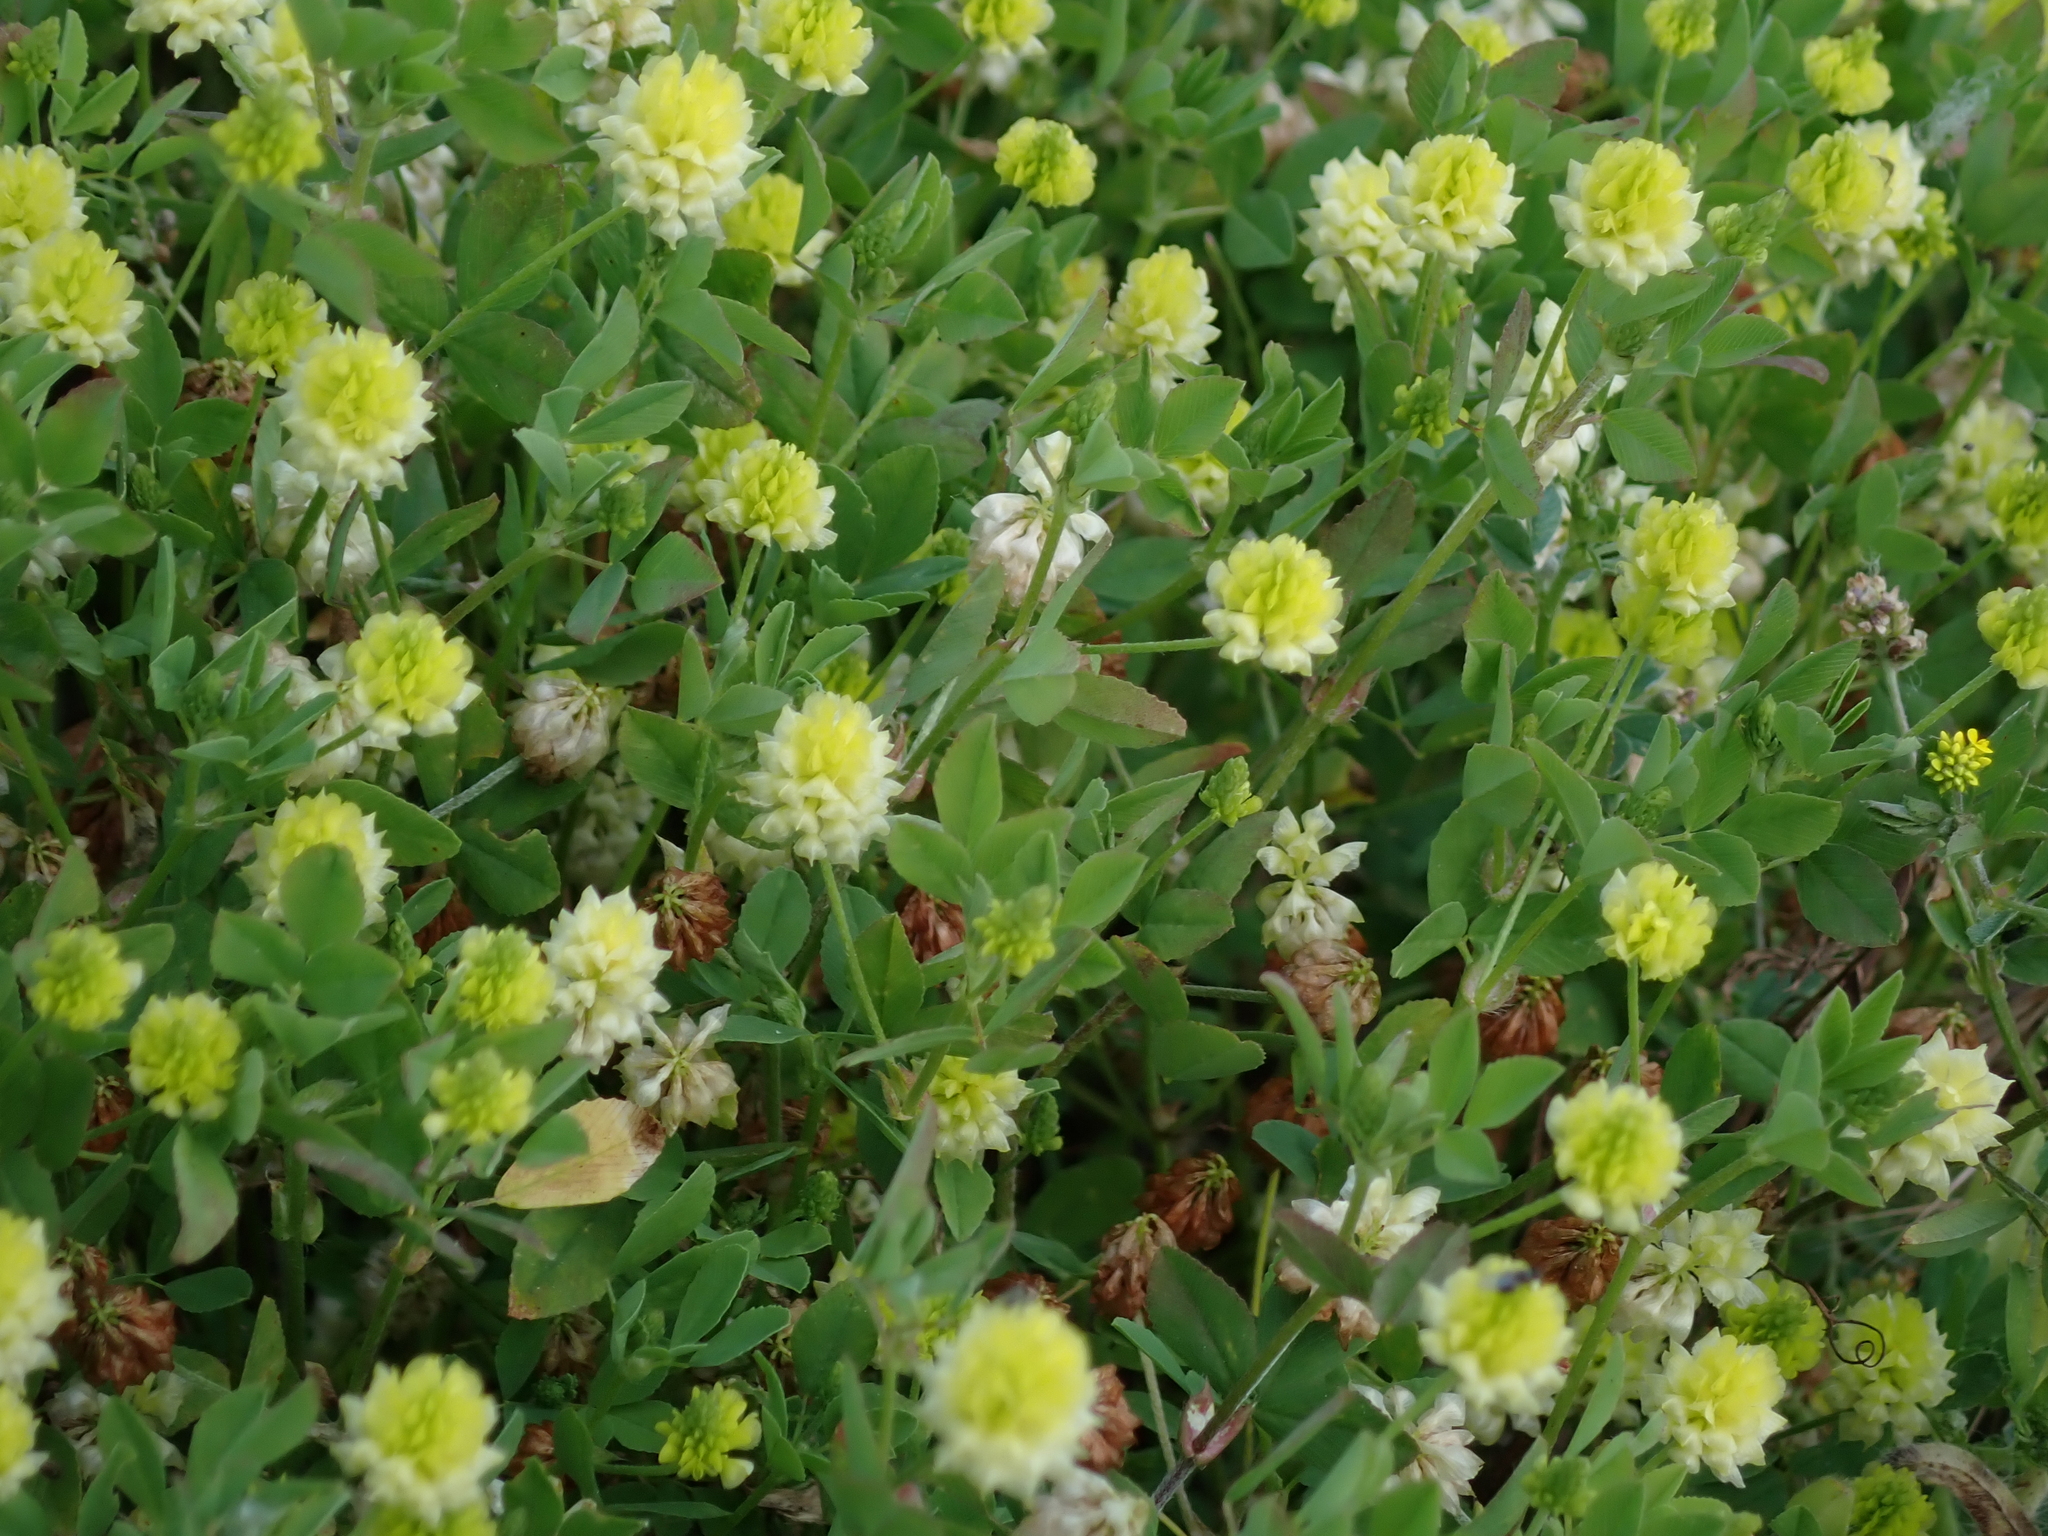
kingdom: Plantae
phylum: Tracheophyta
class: Magnoliopsida
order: Fabales
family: Fabaceae
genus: Trifolium
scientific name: Trifolium campestre
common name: Field clover
